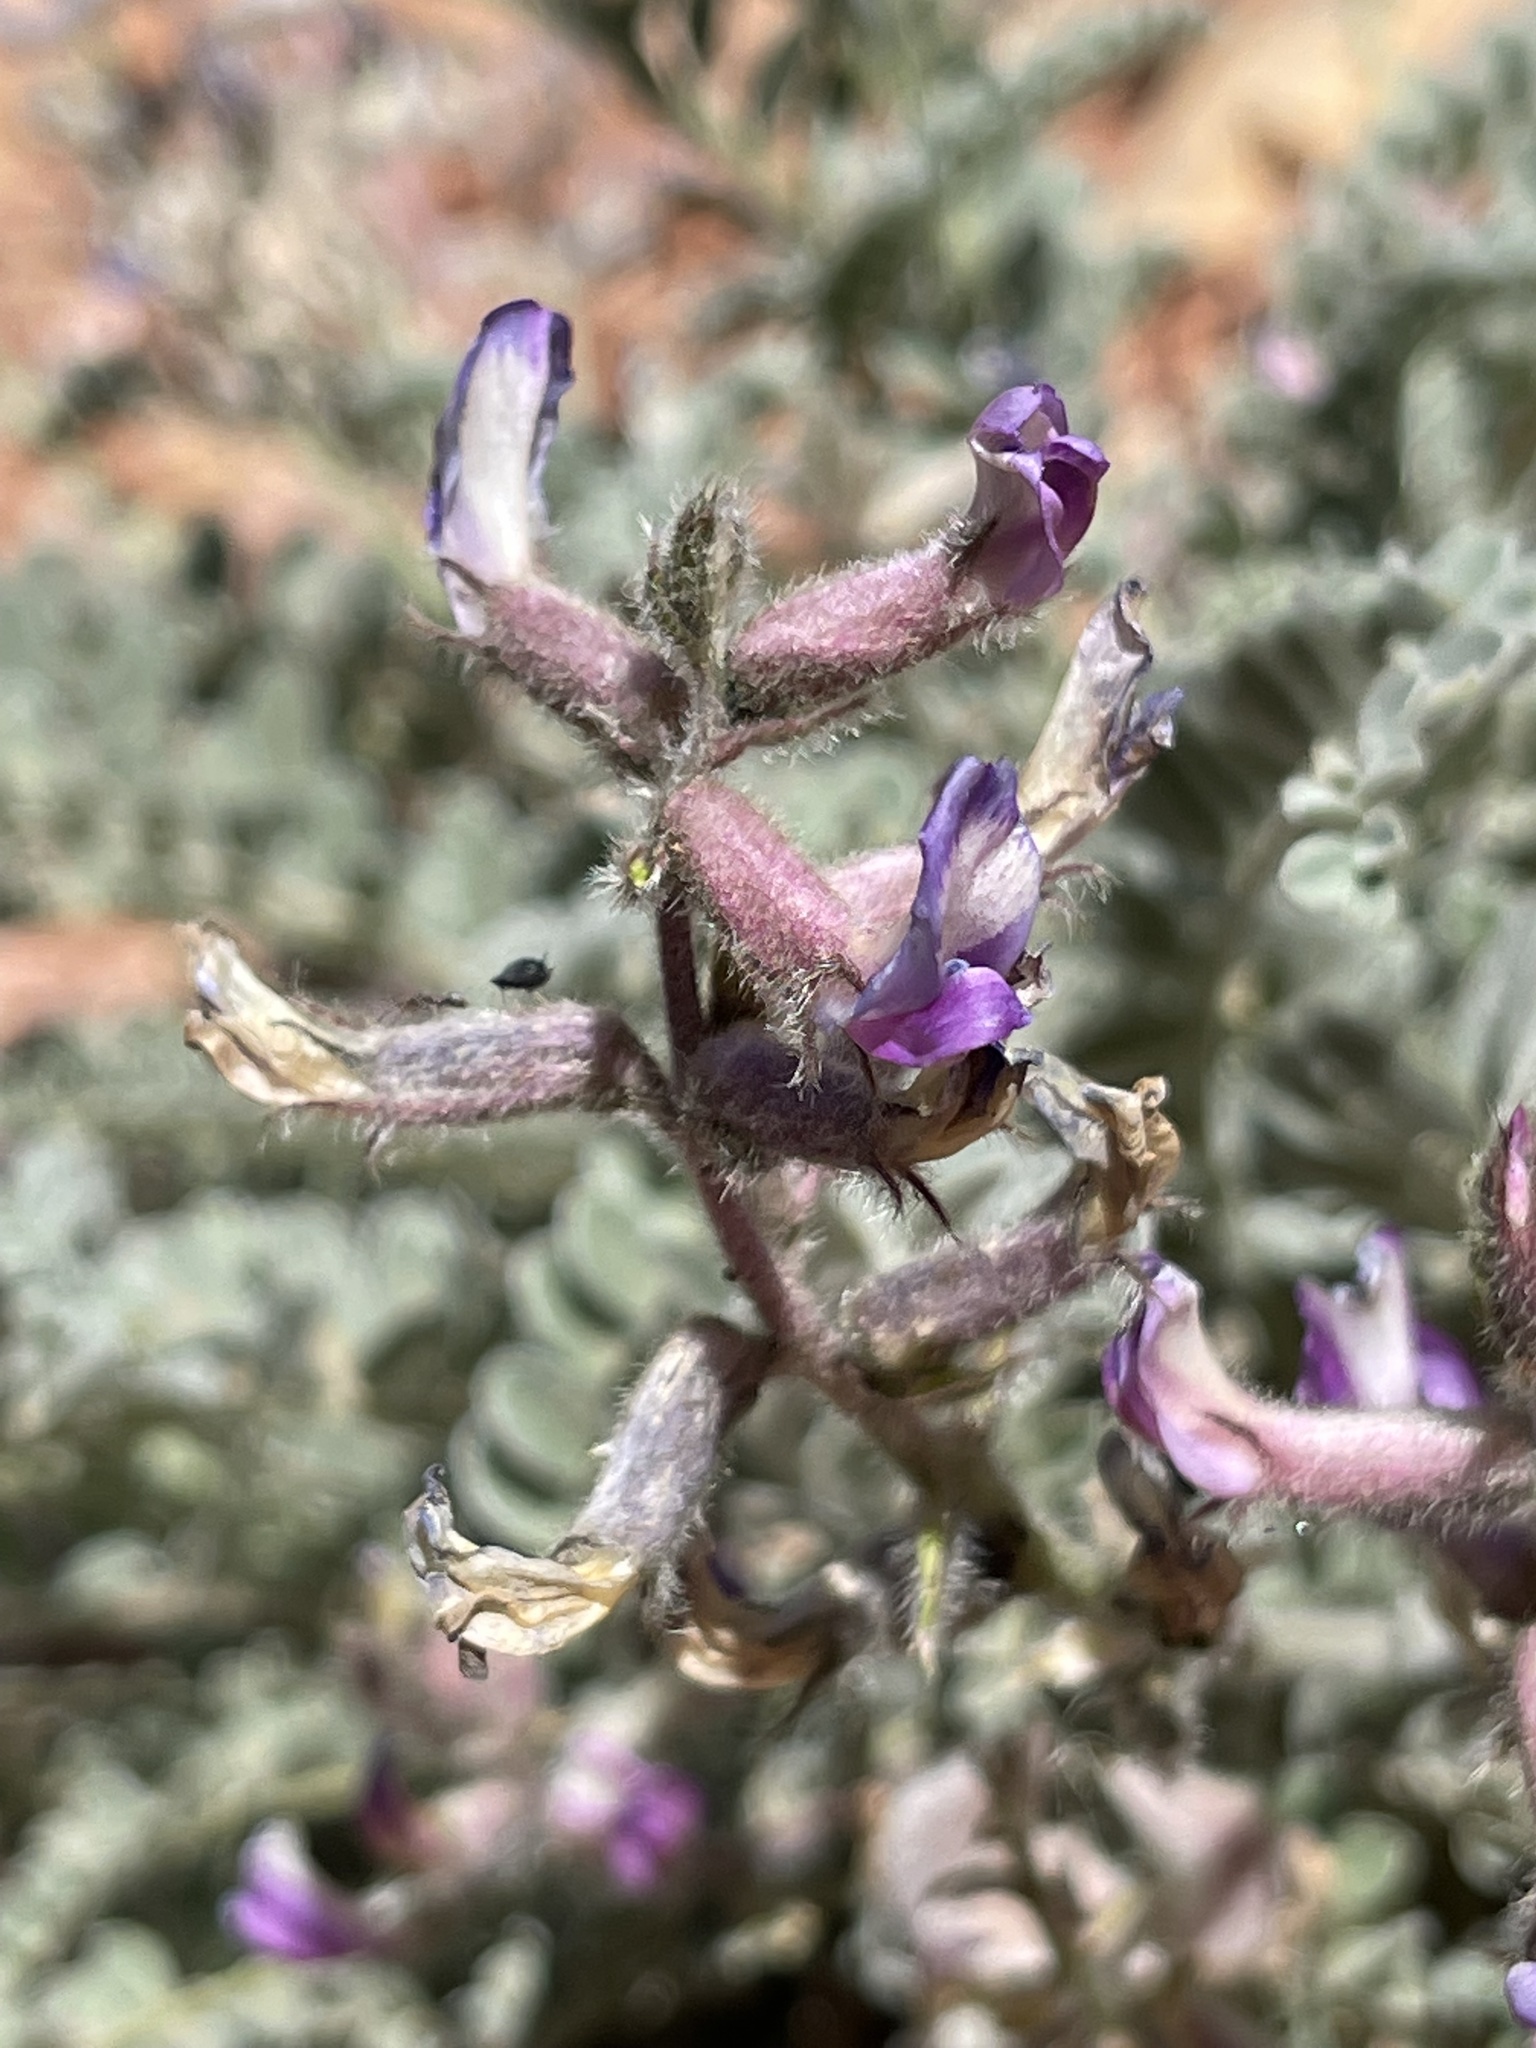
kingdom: Plantae
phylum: Tracheophyta
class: Magnoliopsida
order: Fabales
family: Fabaceae
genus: Astragalus
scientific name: Astragalus mollissimus
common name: Woolly locoweed
